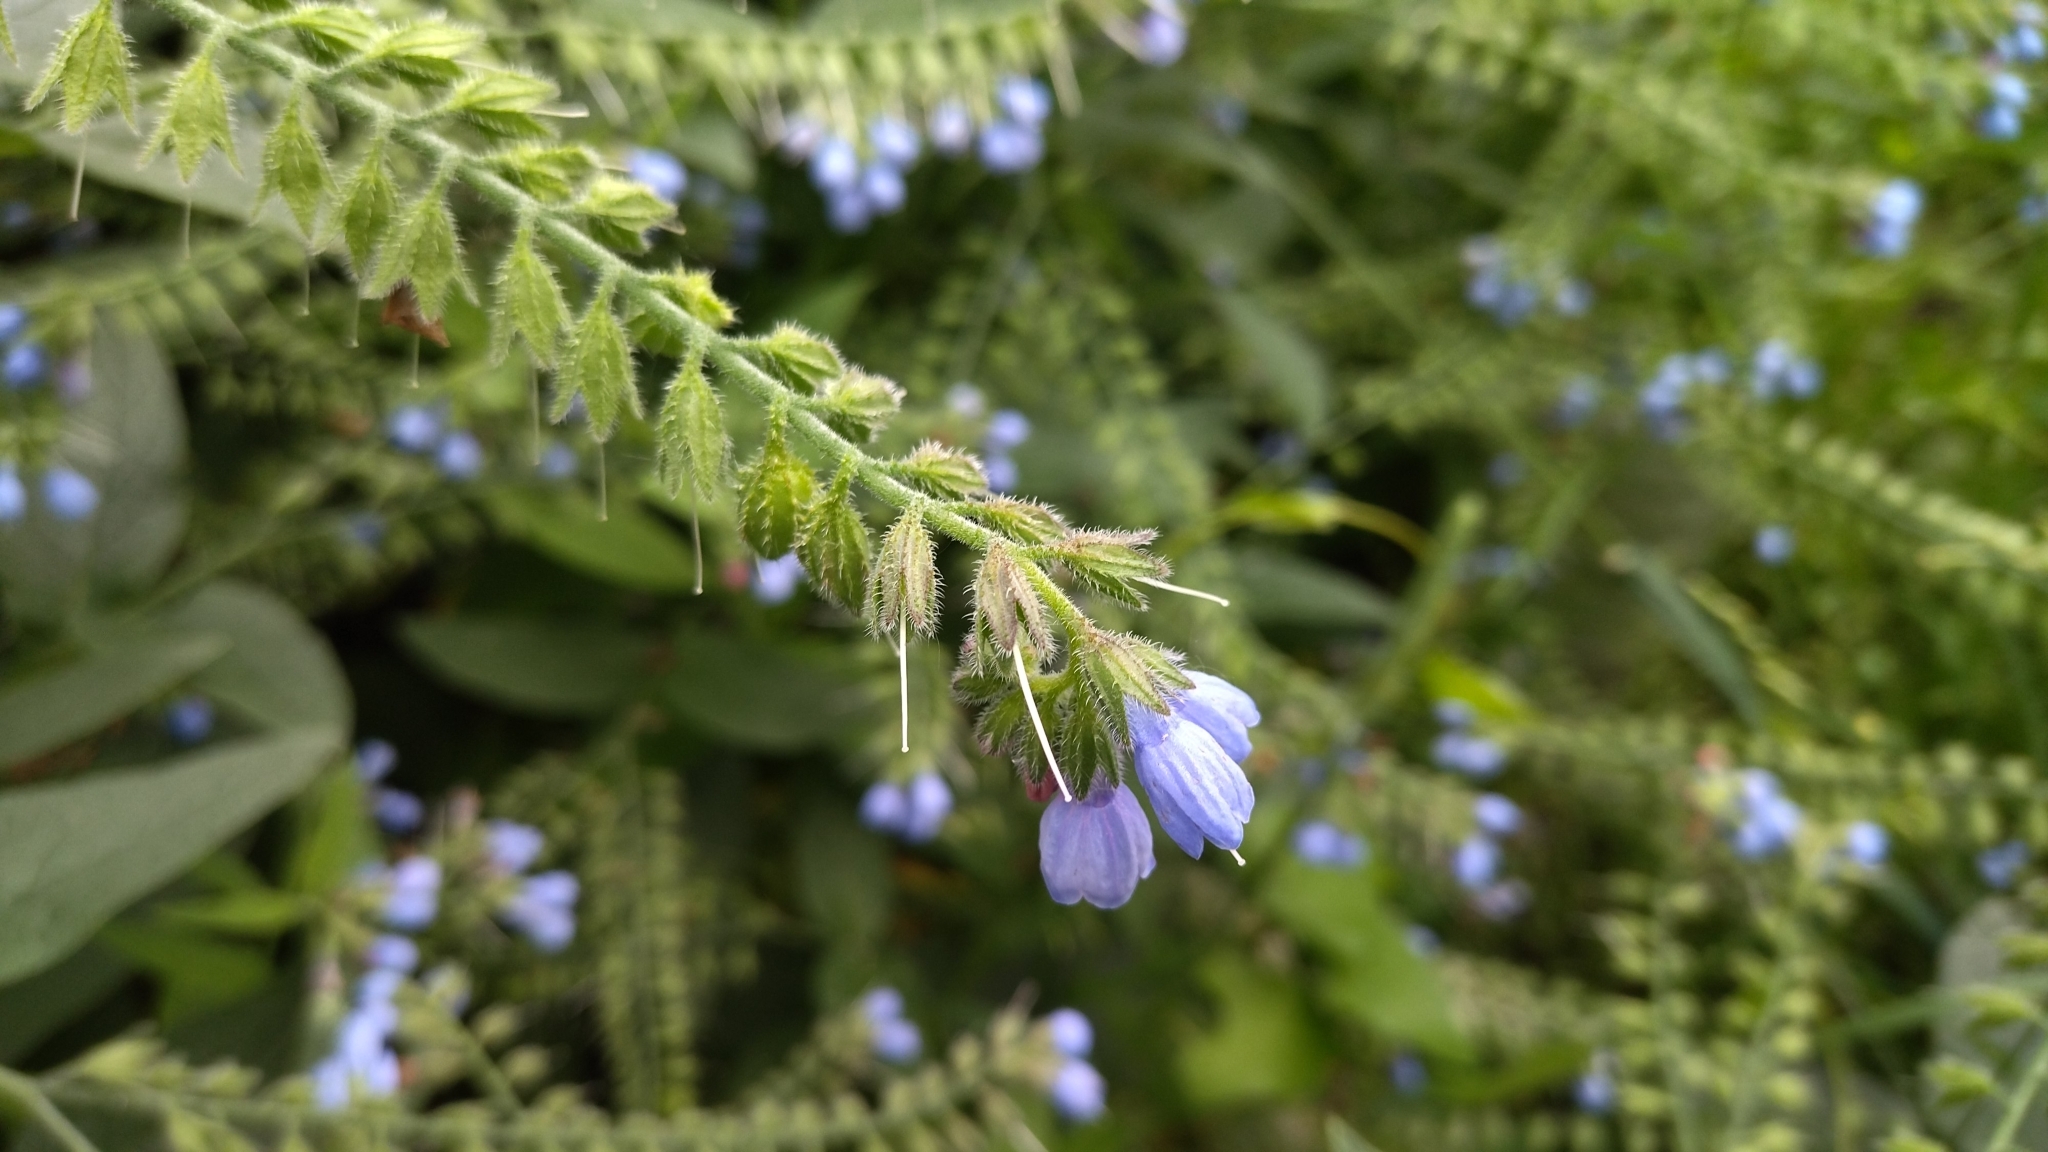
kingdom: Plantae
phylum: Tracheophyta
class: Magnoliopsida
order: Boraginales
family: Boraginaceae
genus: Symphytum
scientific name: Symphytum caucasicum
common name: Caucasian comfrey
